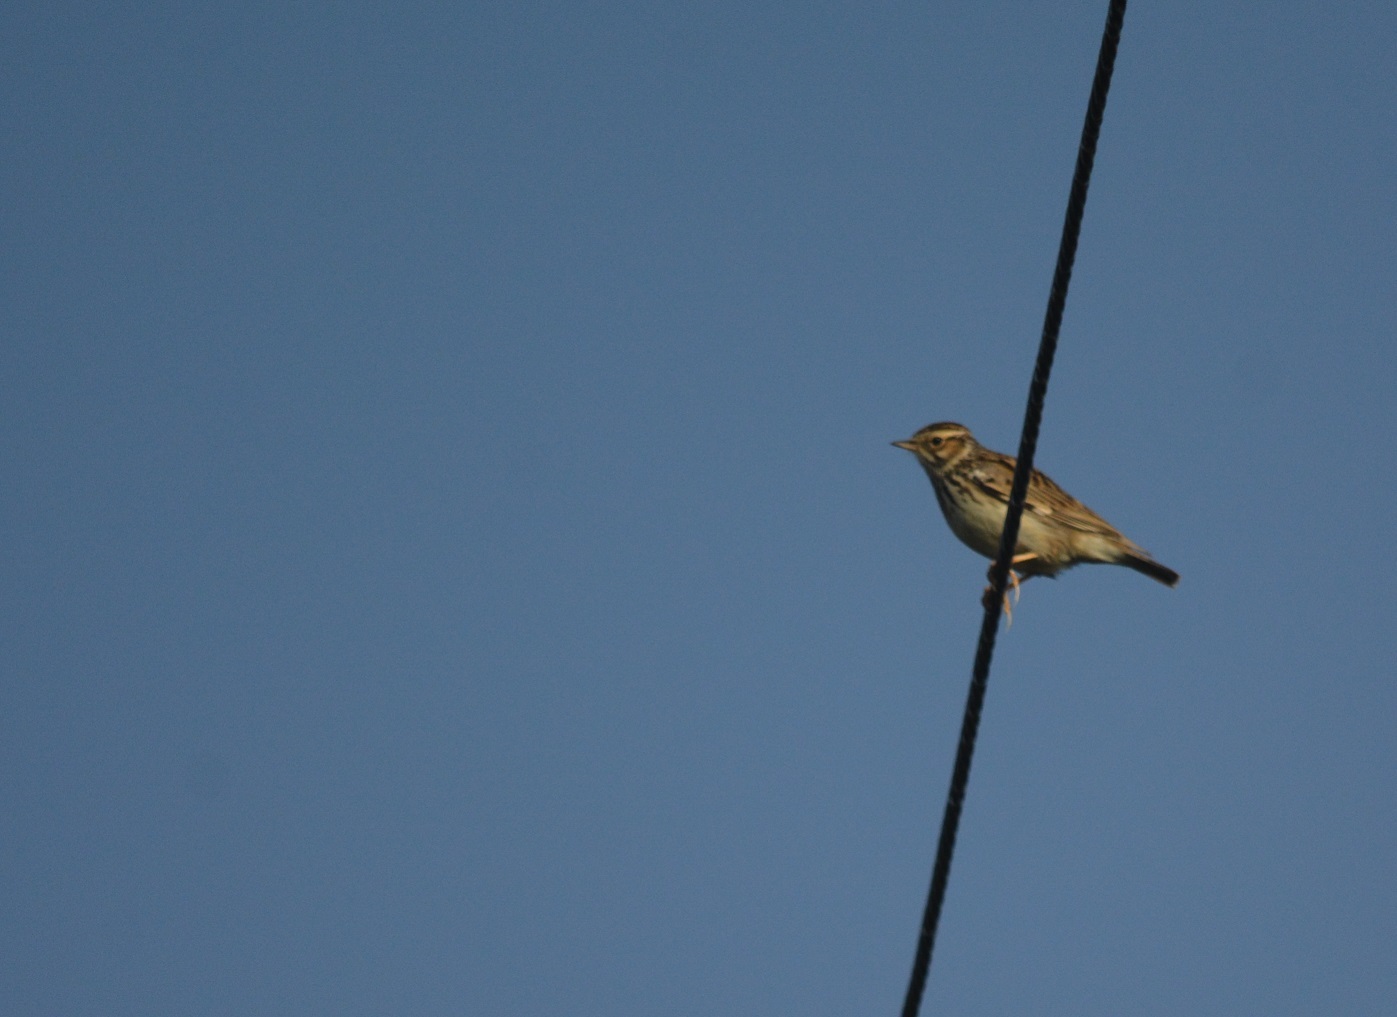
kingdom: Animalia
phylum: Chordata
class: Aves
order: Passeriformes
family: Alaudidae
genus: Lullula
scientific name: Lullula arborea
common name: Woodlark
